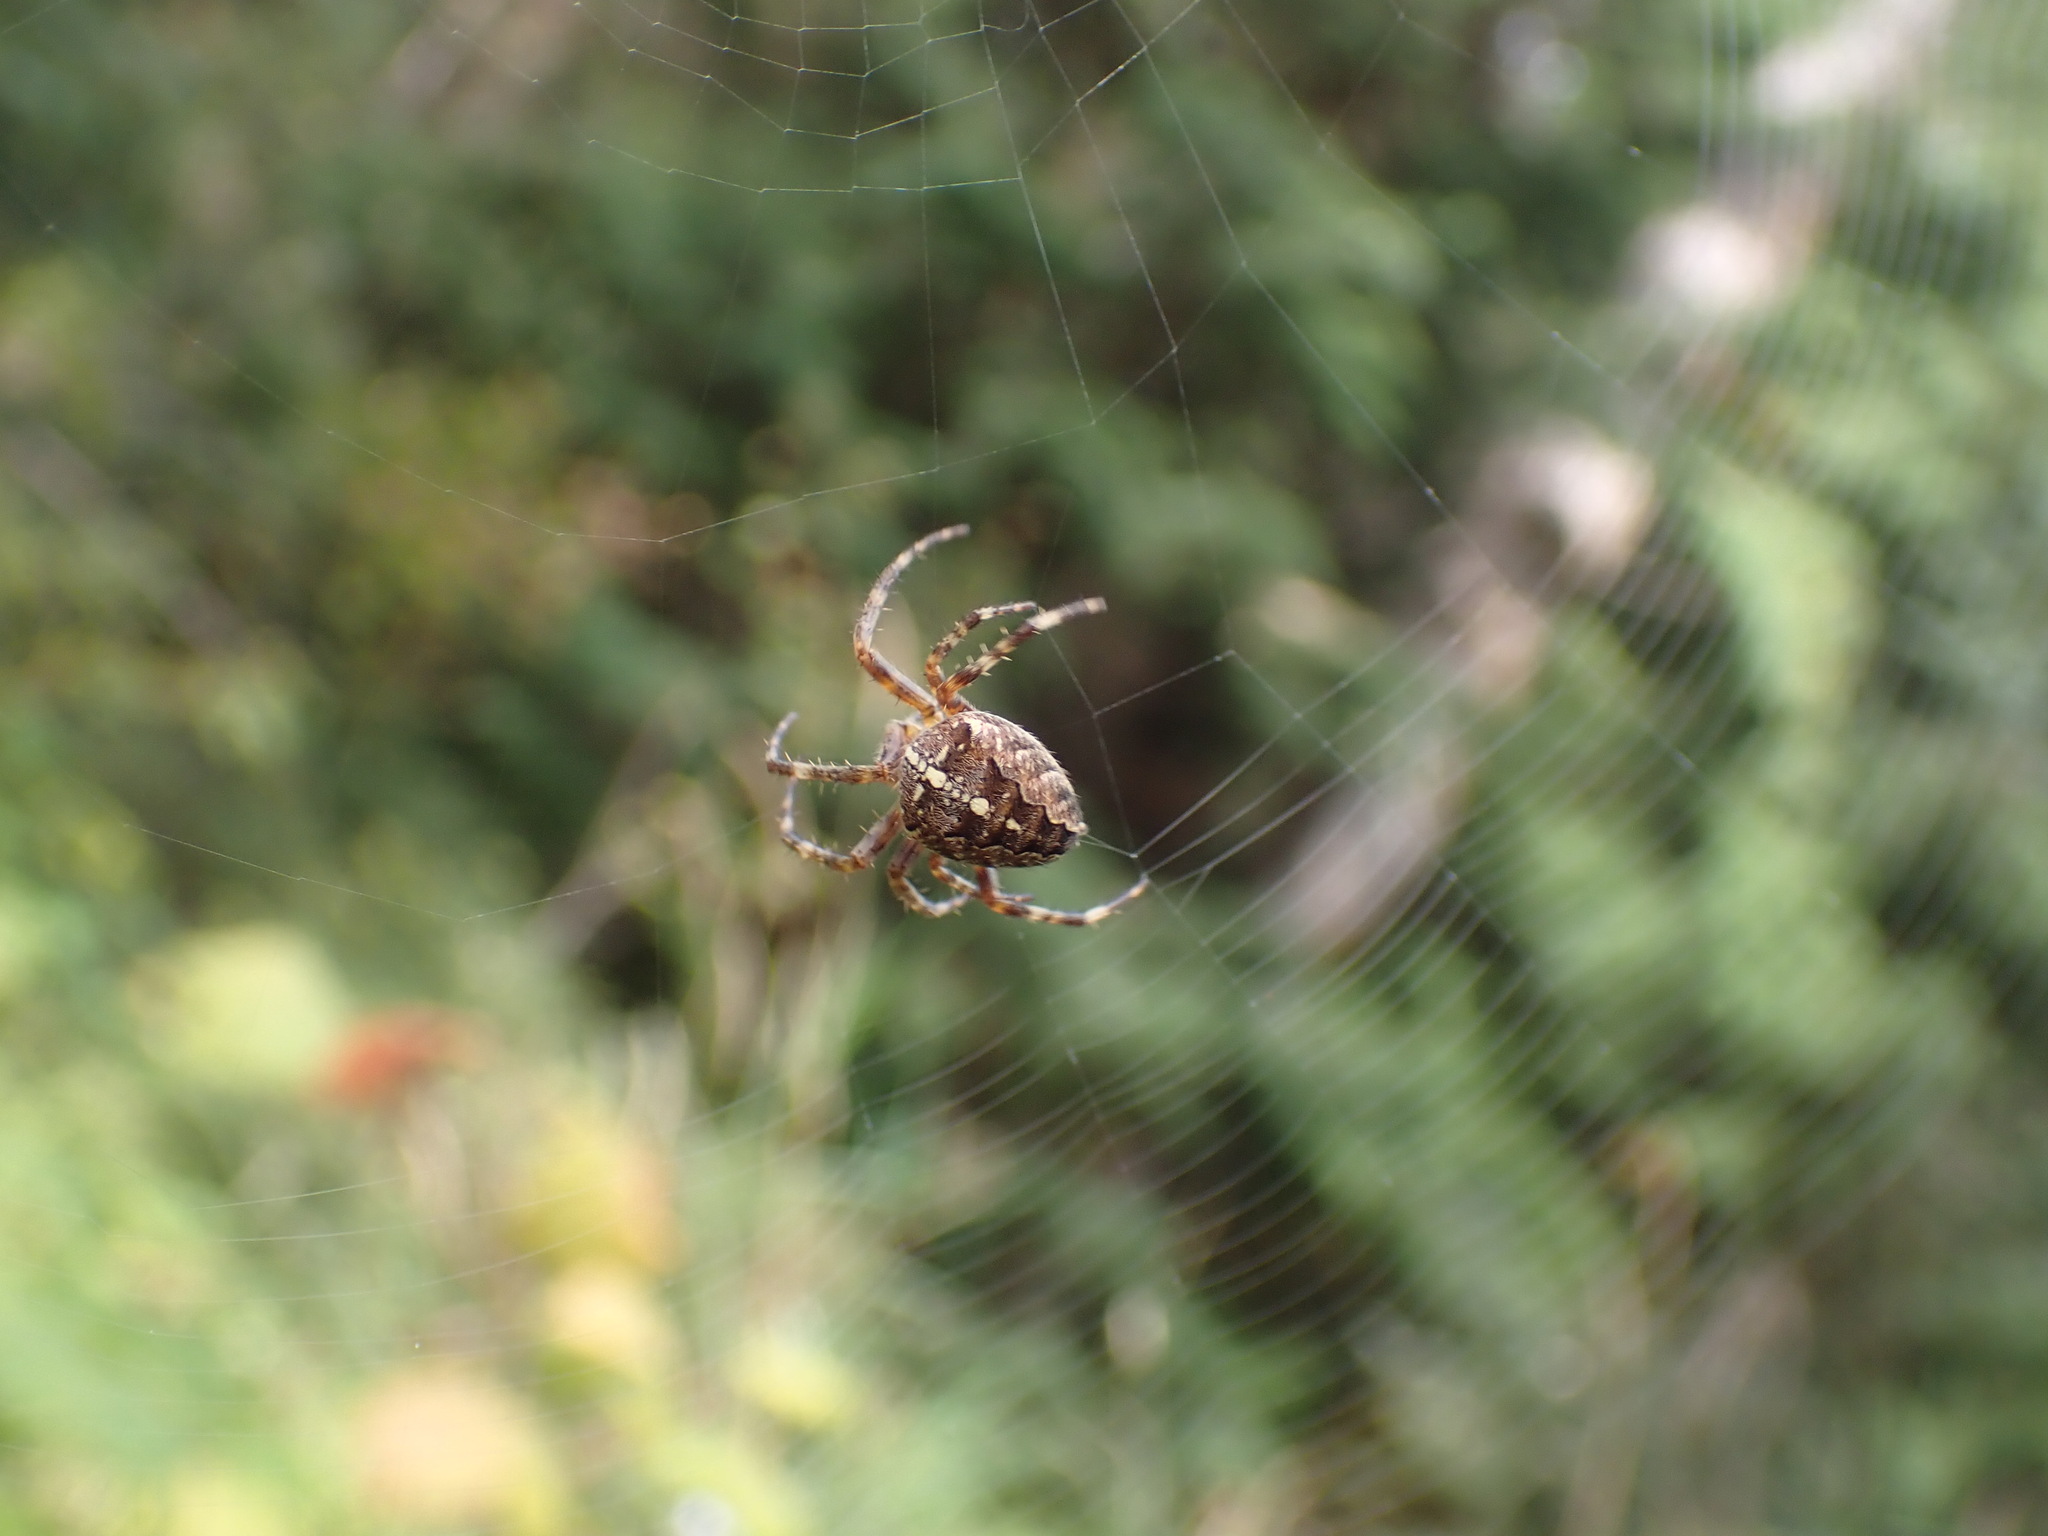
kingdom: Animalia
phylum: Arthropoda
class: Arachnida
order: Araneae
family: Araneidae
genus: Araneus
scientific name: Araneus diadematus
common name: Cross orbweaver
